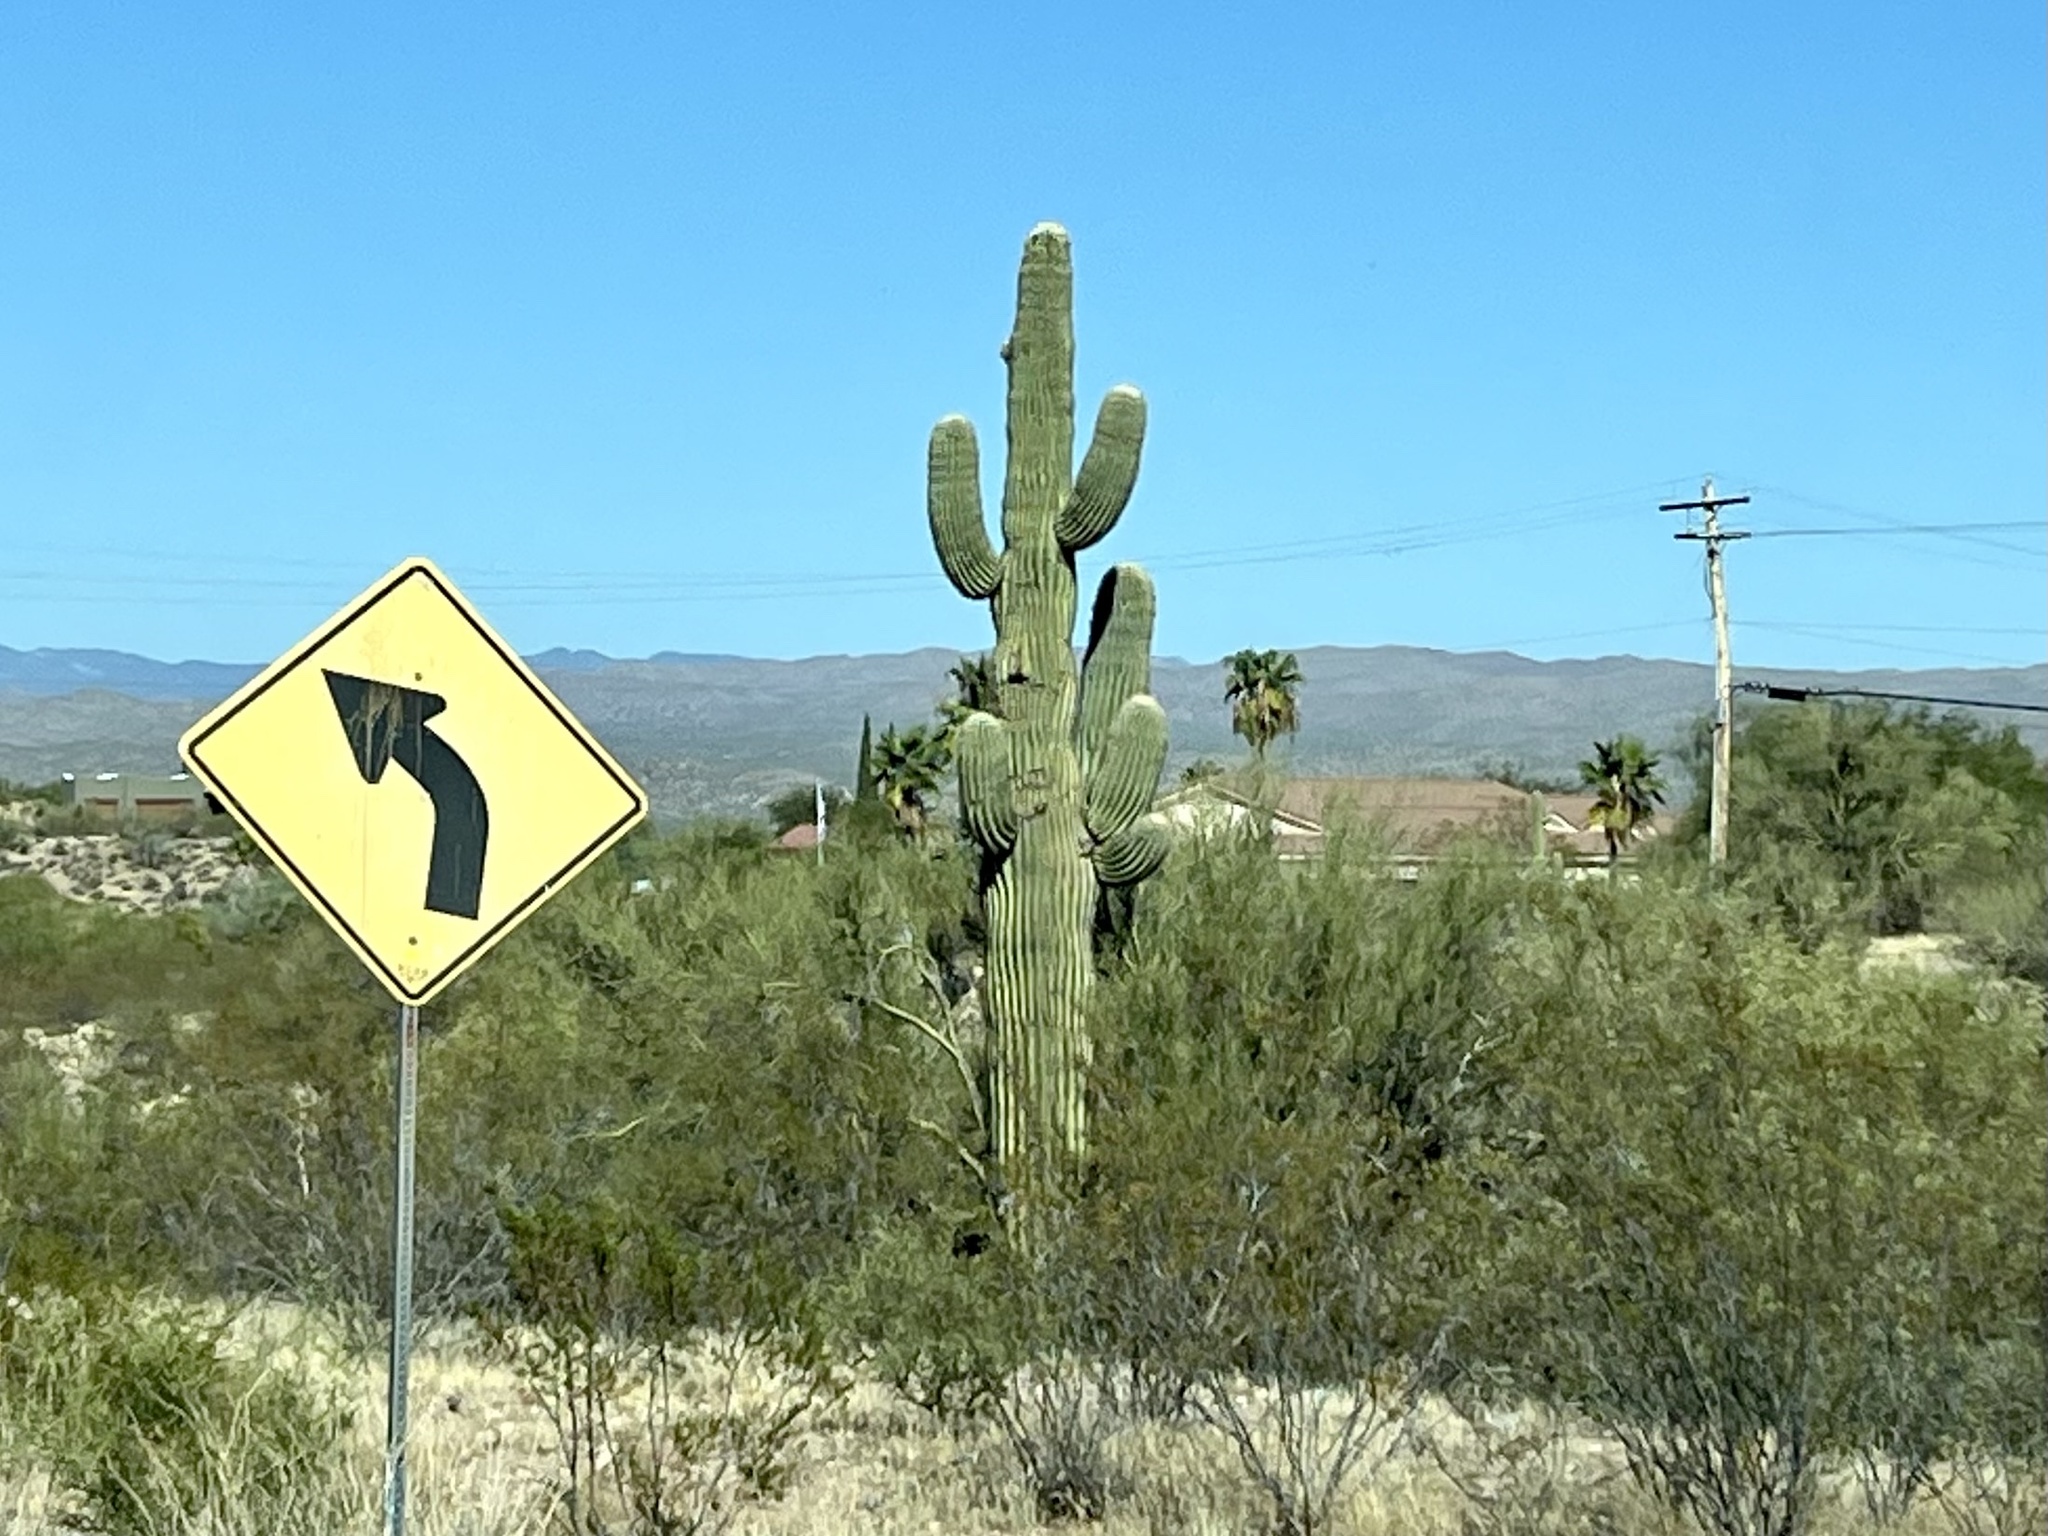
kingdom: Plantae
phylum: Tracheophyta
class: Magnoliopsida
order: Caryophyllales
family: Cactaceae
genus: Carnegiea
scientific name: Carnegiea gigantea
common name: Saguaro
